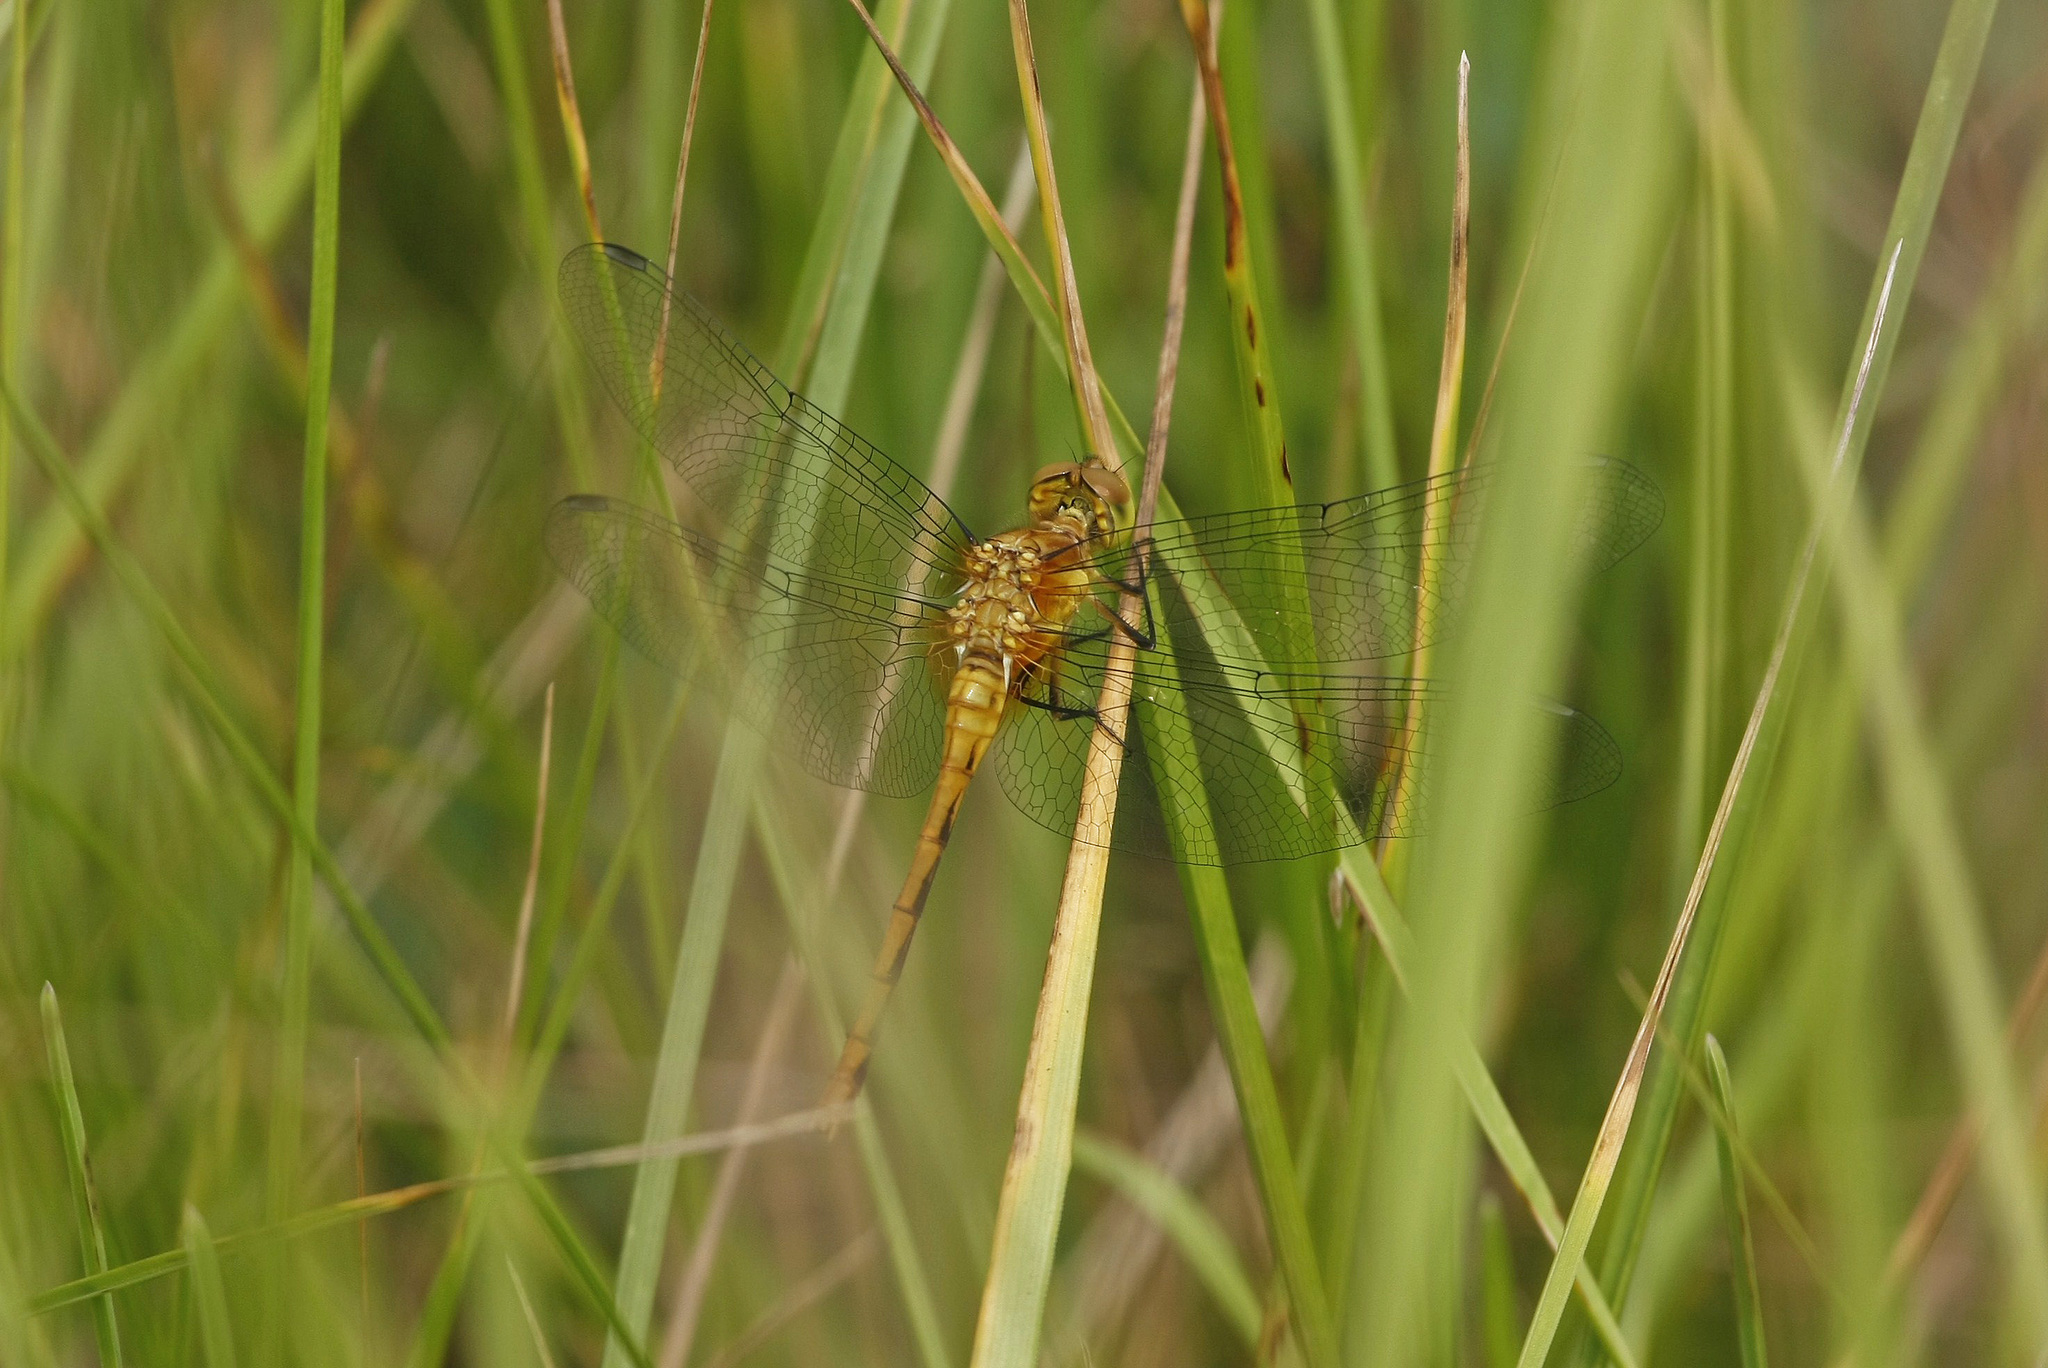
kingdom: Animalia
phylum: Arthropoda
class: Insecta
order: Odonata
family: Libellulidae
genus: Sympetrum
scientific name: Sympetrum
